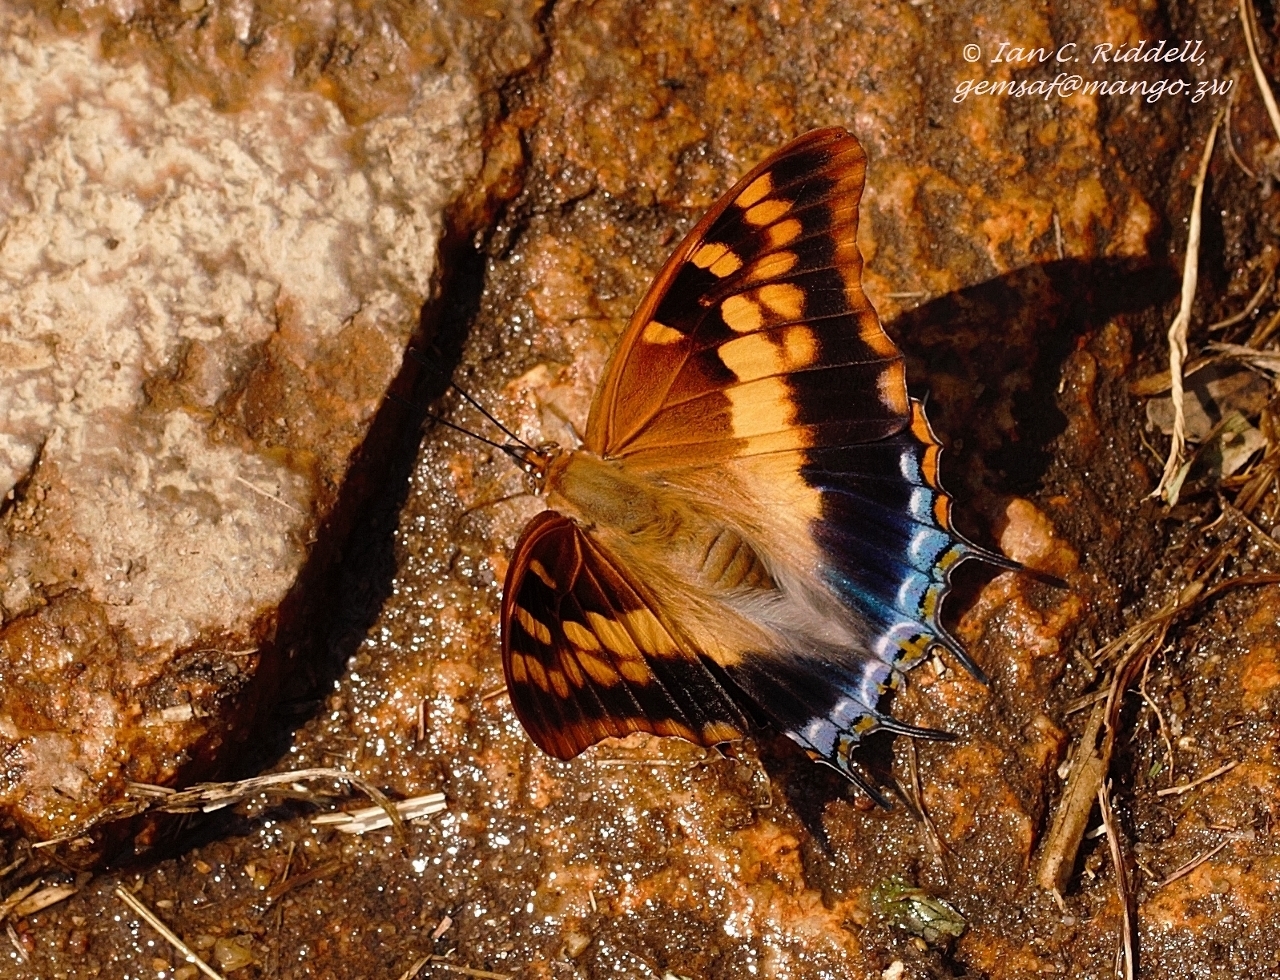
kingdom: Animalia
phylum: Arthropoda
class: Insecta
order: Lepidoptera
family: Nymphalidae
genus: Charaxes
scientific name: Charaxes guderiana
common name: Blue-spangled charaxes
